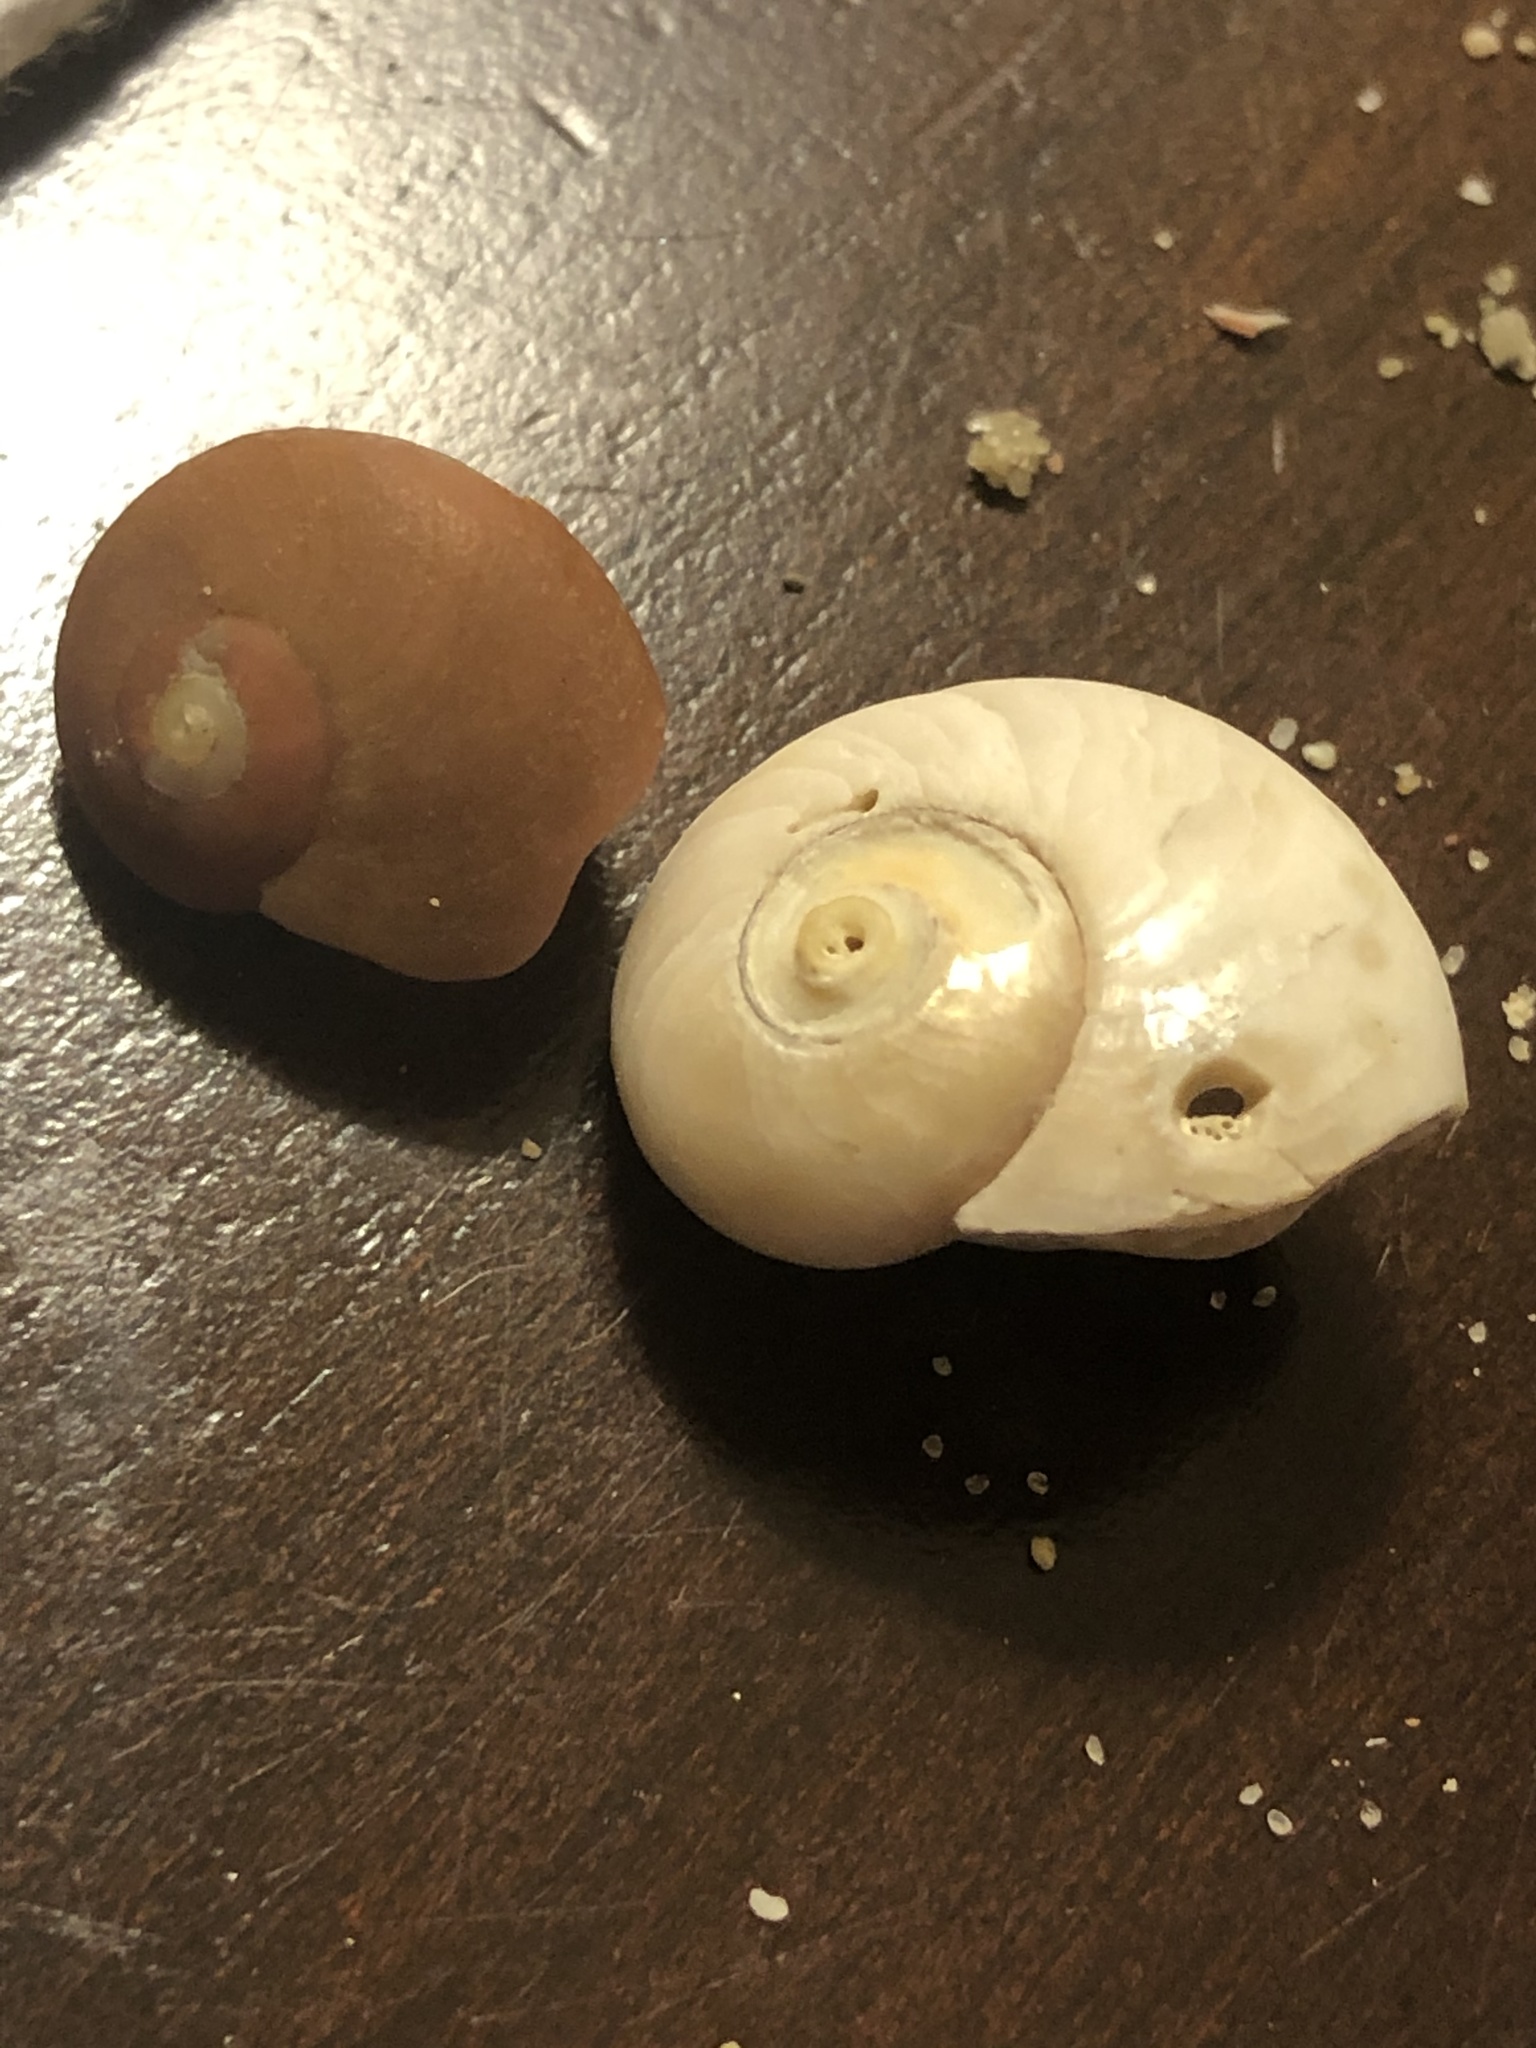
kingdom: Animalia
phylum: Mollusca
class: Gastropoda
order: Trochida
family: Tegulidae
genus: Norrisia
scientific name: Norrisia norrisii
